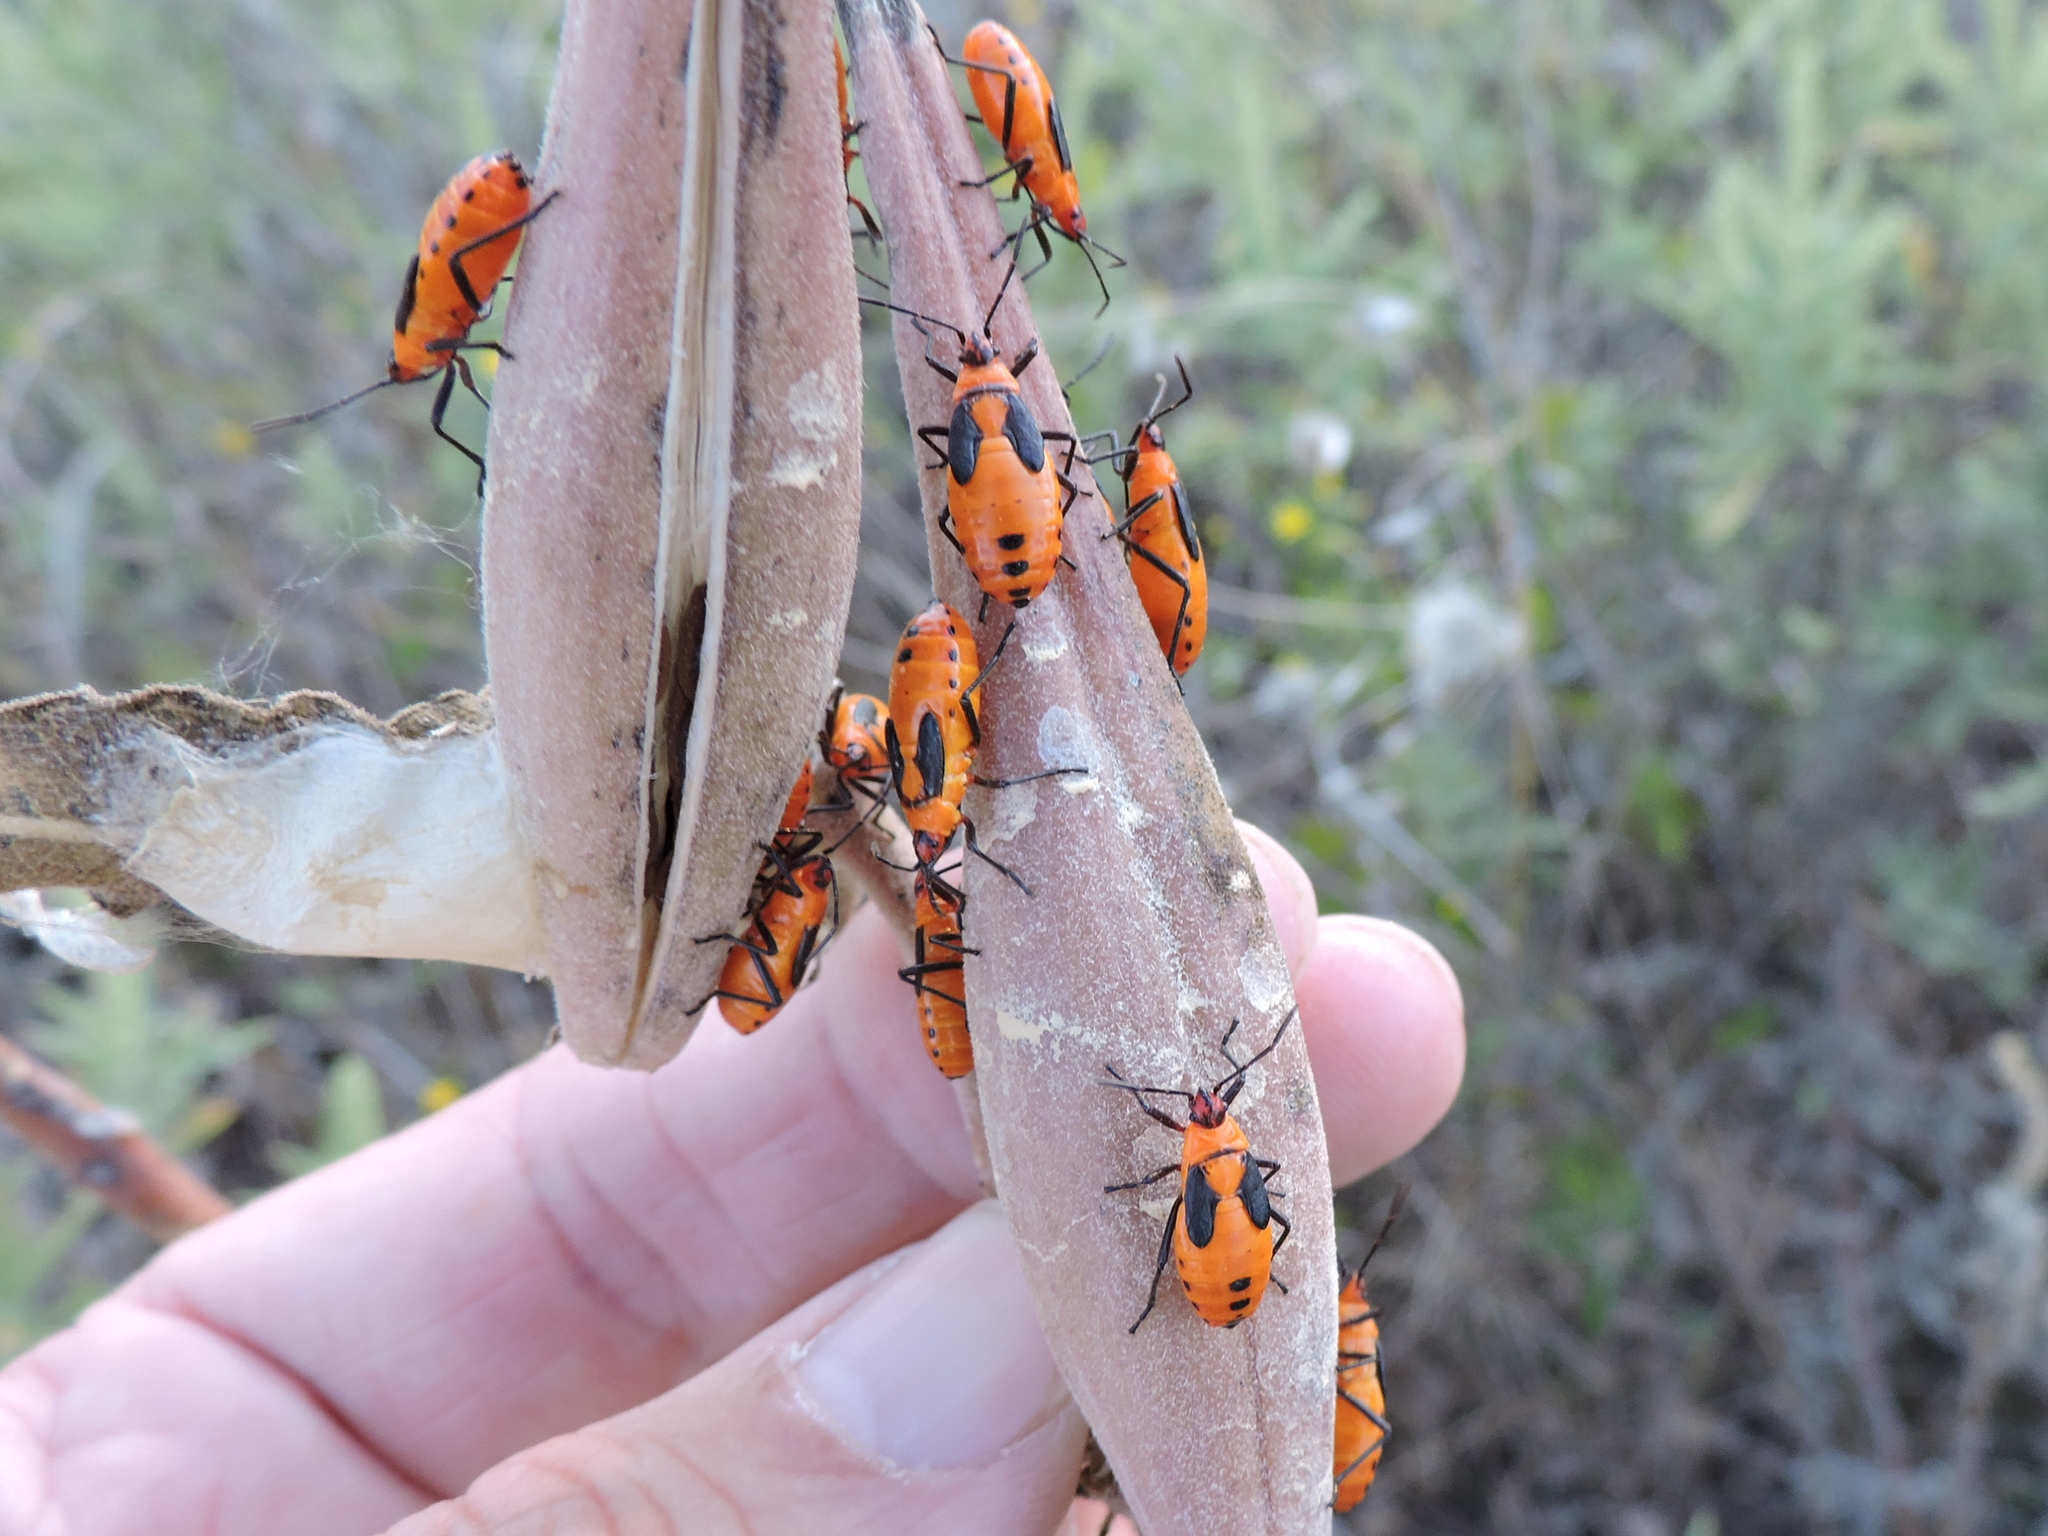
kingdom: Animalia
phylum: Arthropoda
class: Insecta
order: Hemiptera
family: Lygaeidae
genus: Oncopeltus
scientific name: Oncopeltus fasciatus
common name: Large milkweed bug
